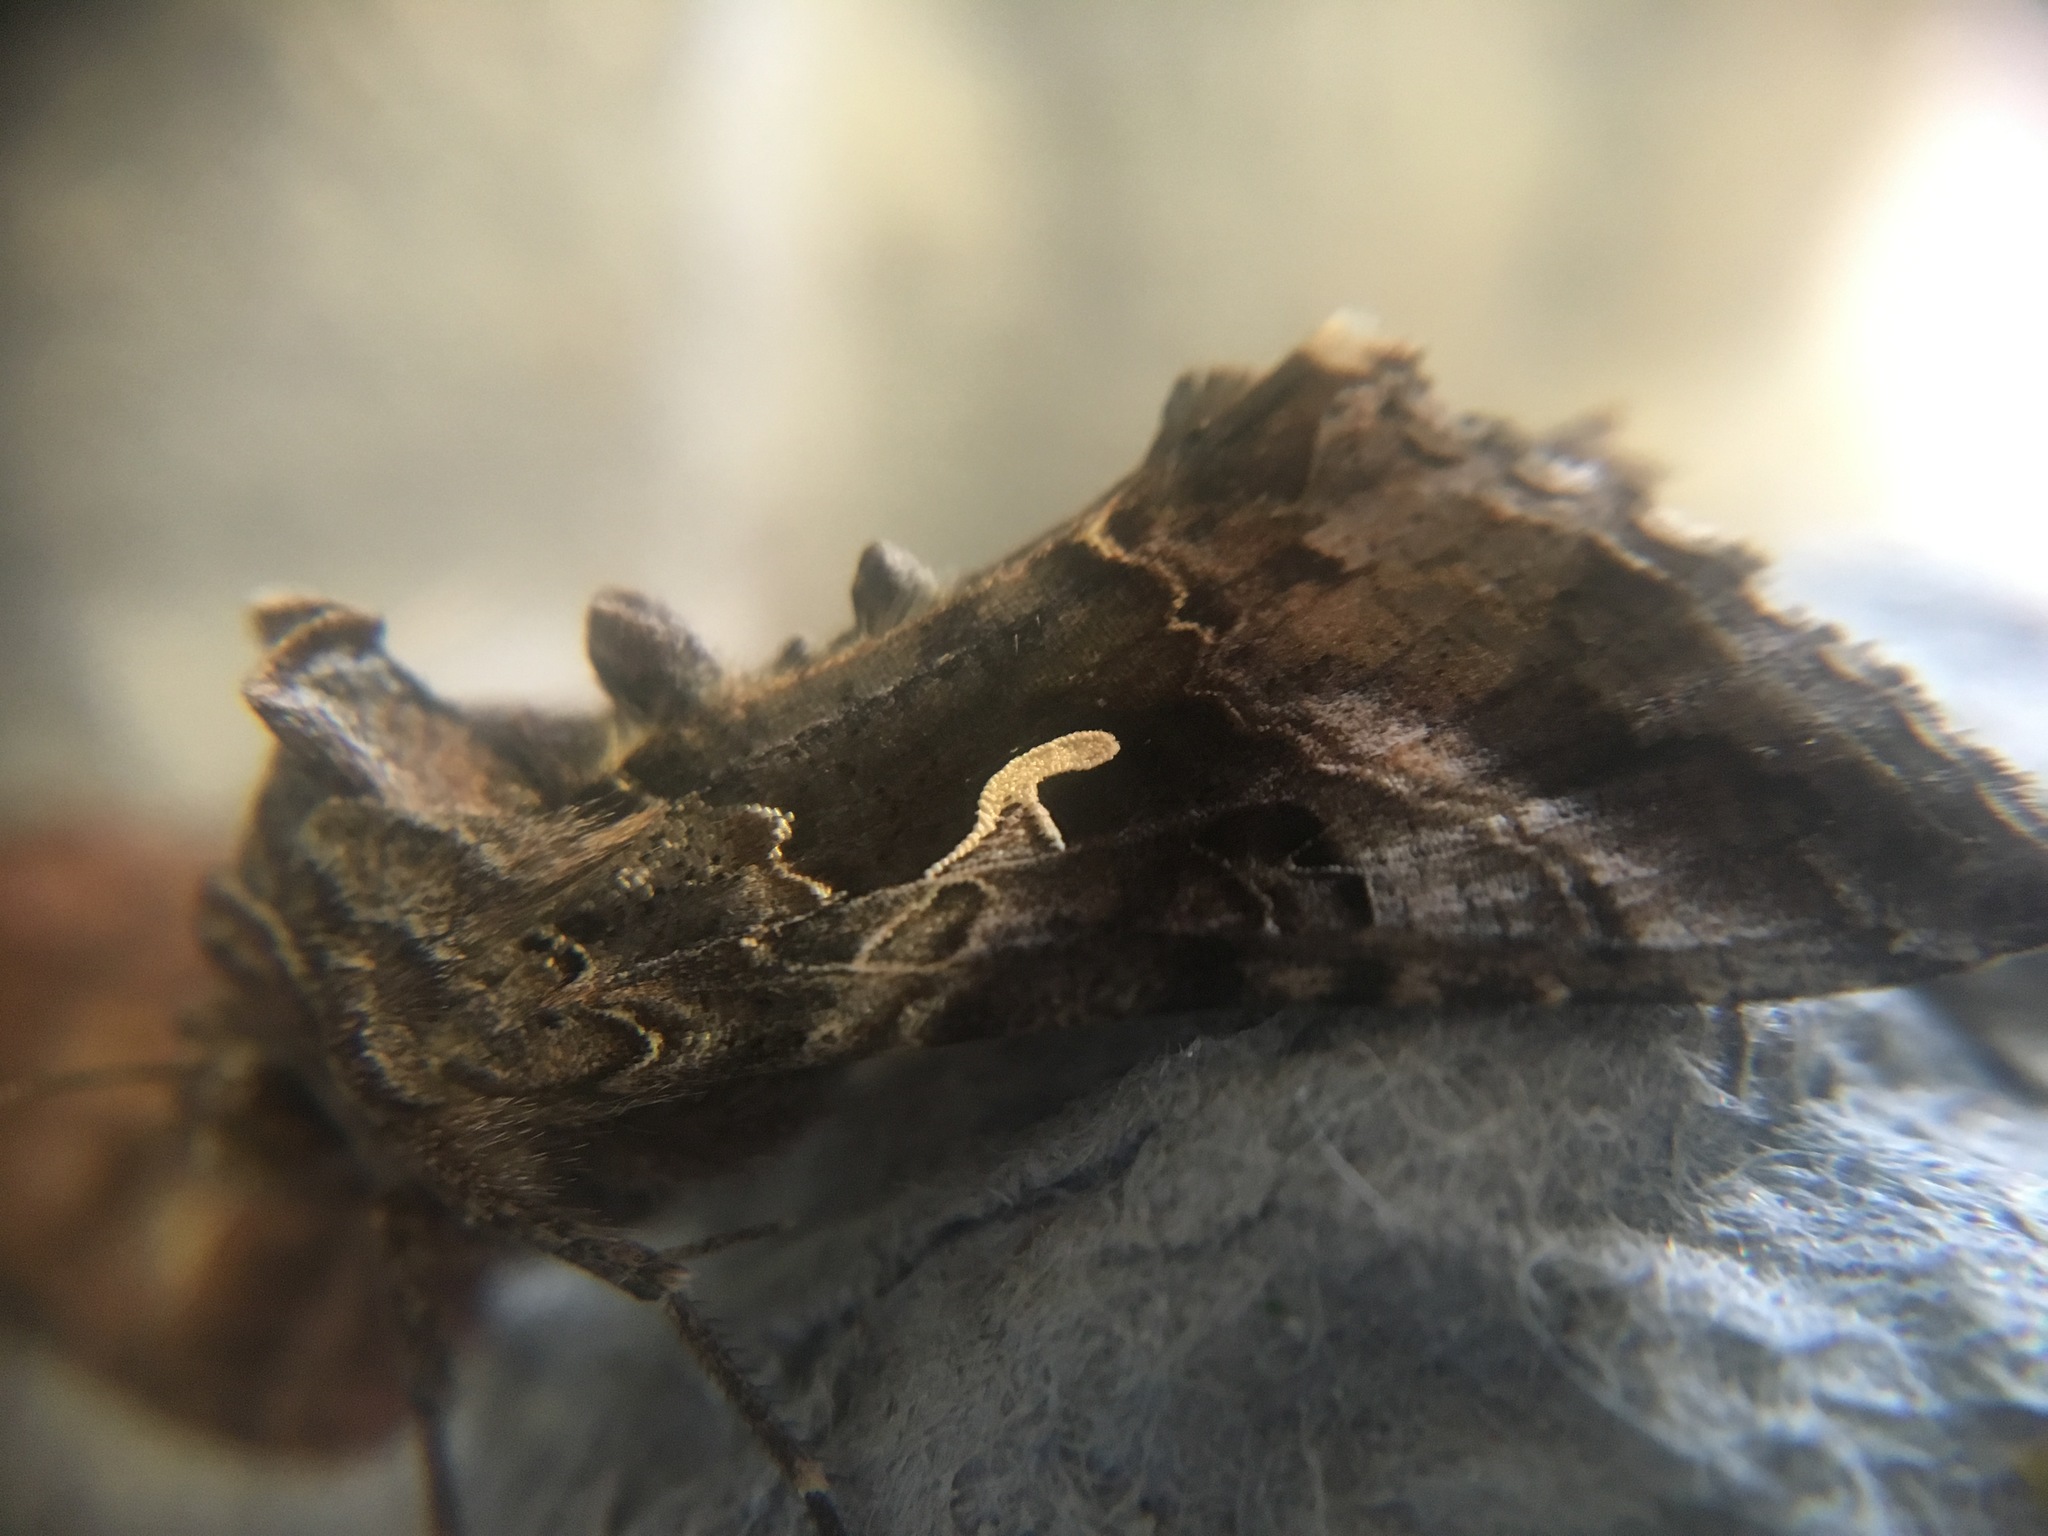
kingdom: Animalia
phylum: Arthropoda
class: Insecta
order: Lepidoptera
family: Noctuidae
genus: Autographa
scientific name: Autographa gamma
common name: Silver y
